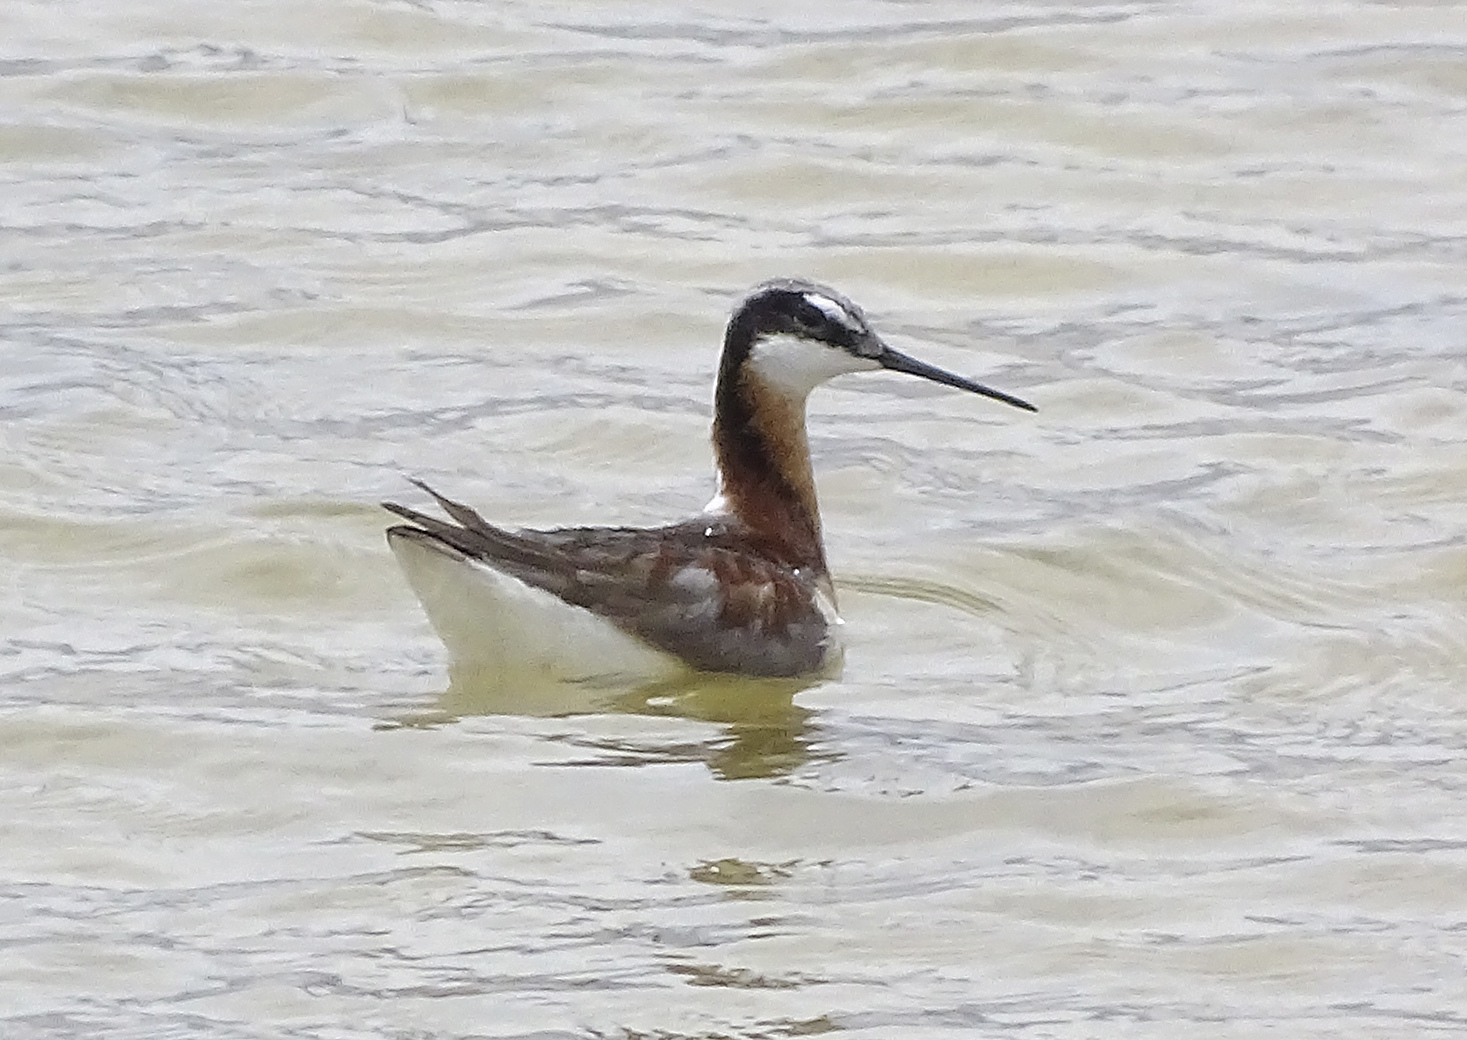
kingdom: Animalia
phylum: Chordata
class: Aves
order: Charadriiformes
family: Scolopacidae
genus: Phalaropus
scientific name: Phalaropus tricolor
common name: Wilson's phalarope
